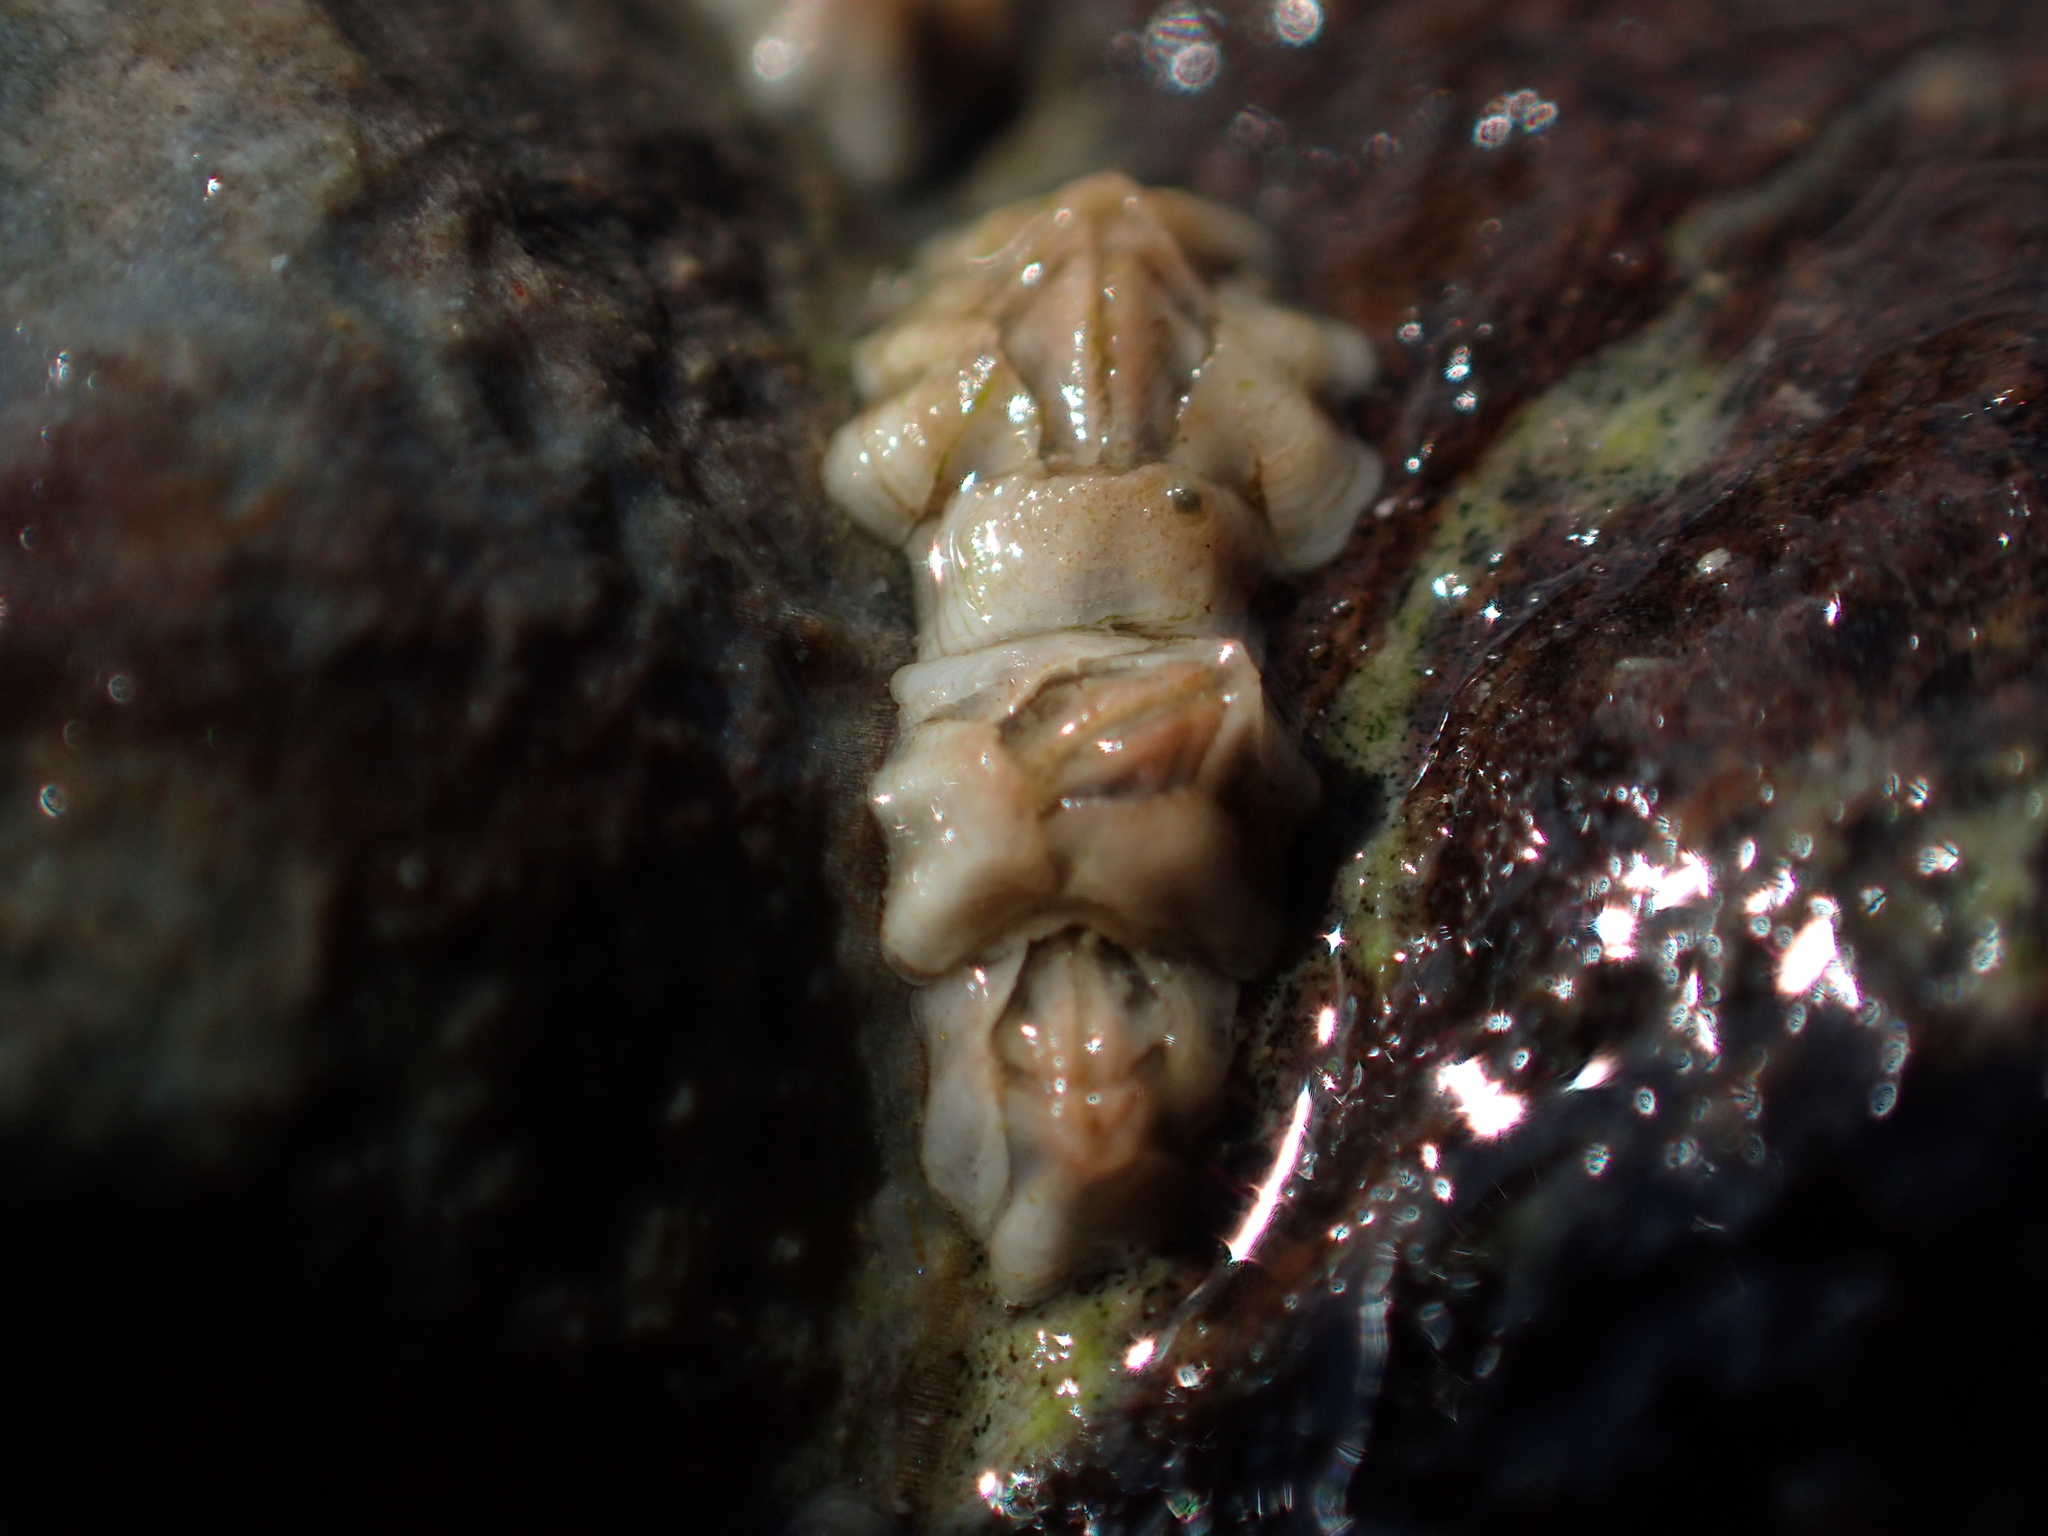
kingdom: Animalia
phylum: Arthropoda
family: Elminiidae
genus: Austrominius
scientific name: Austrominius modestus
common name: Australasian barnacle
